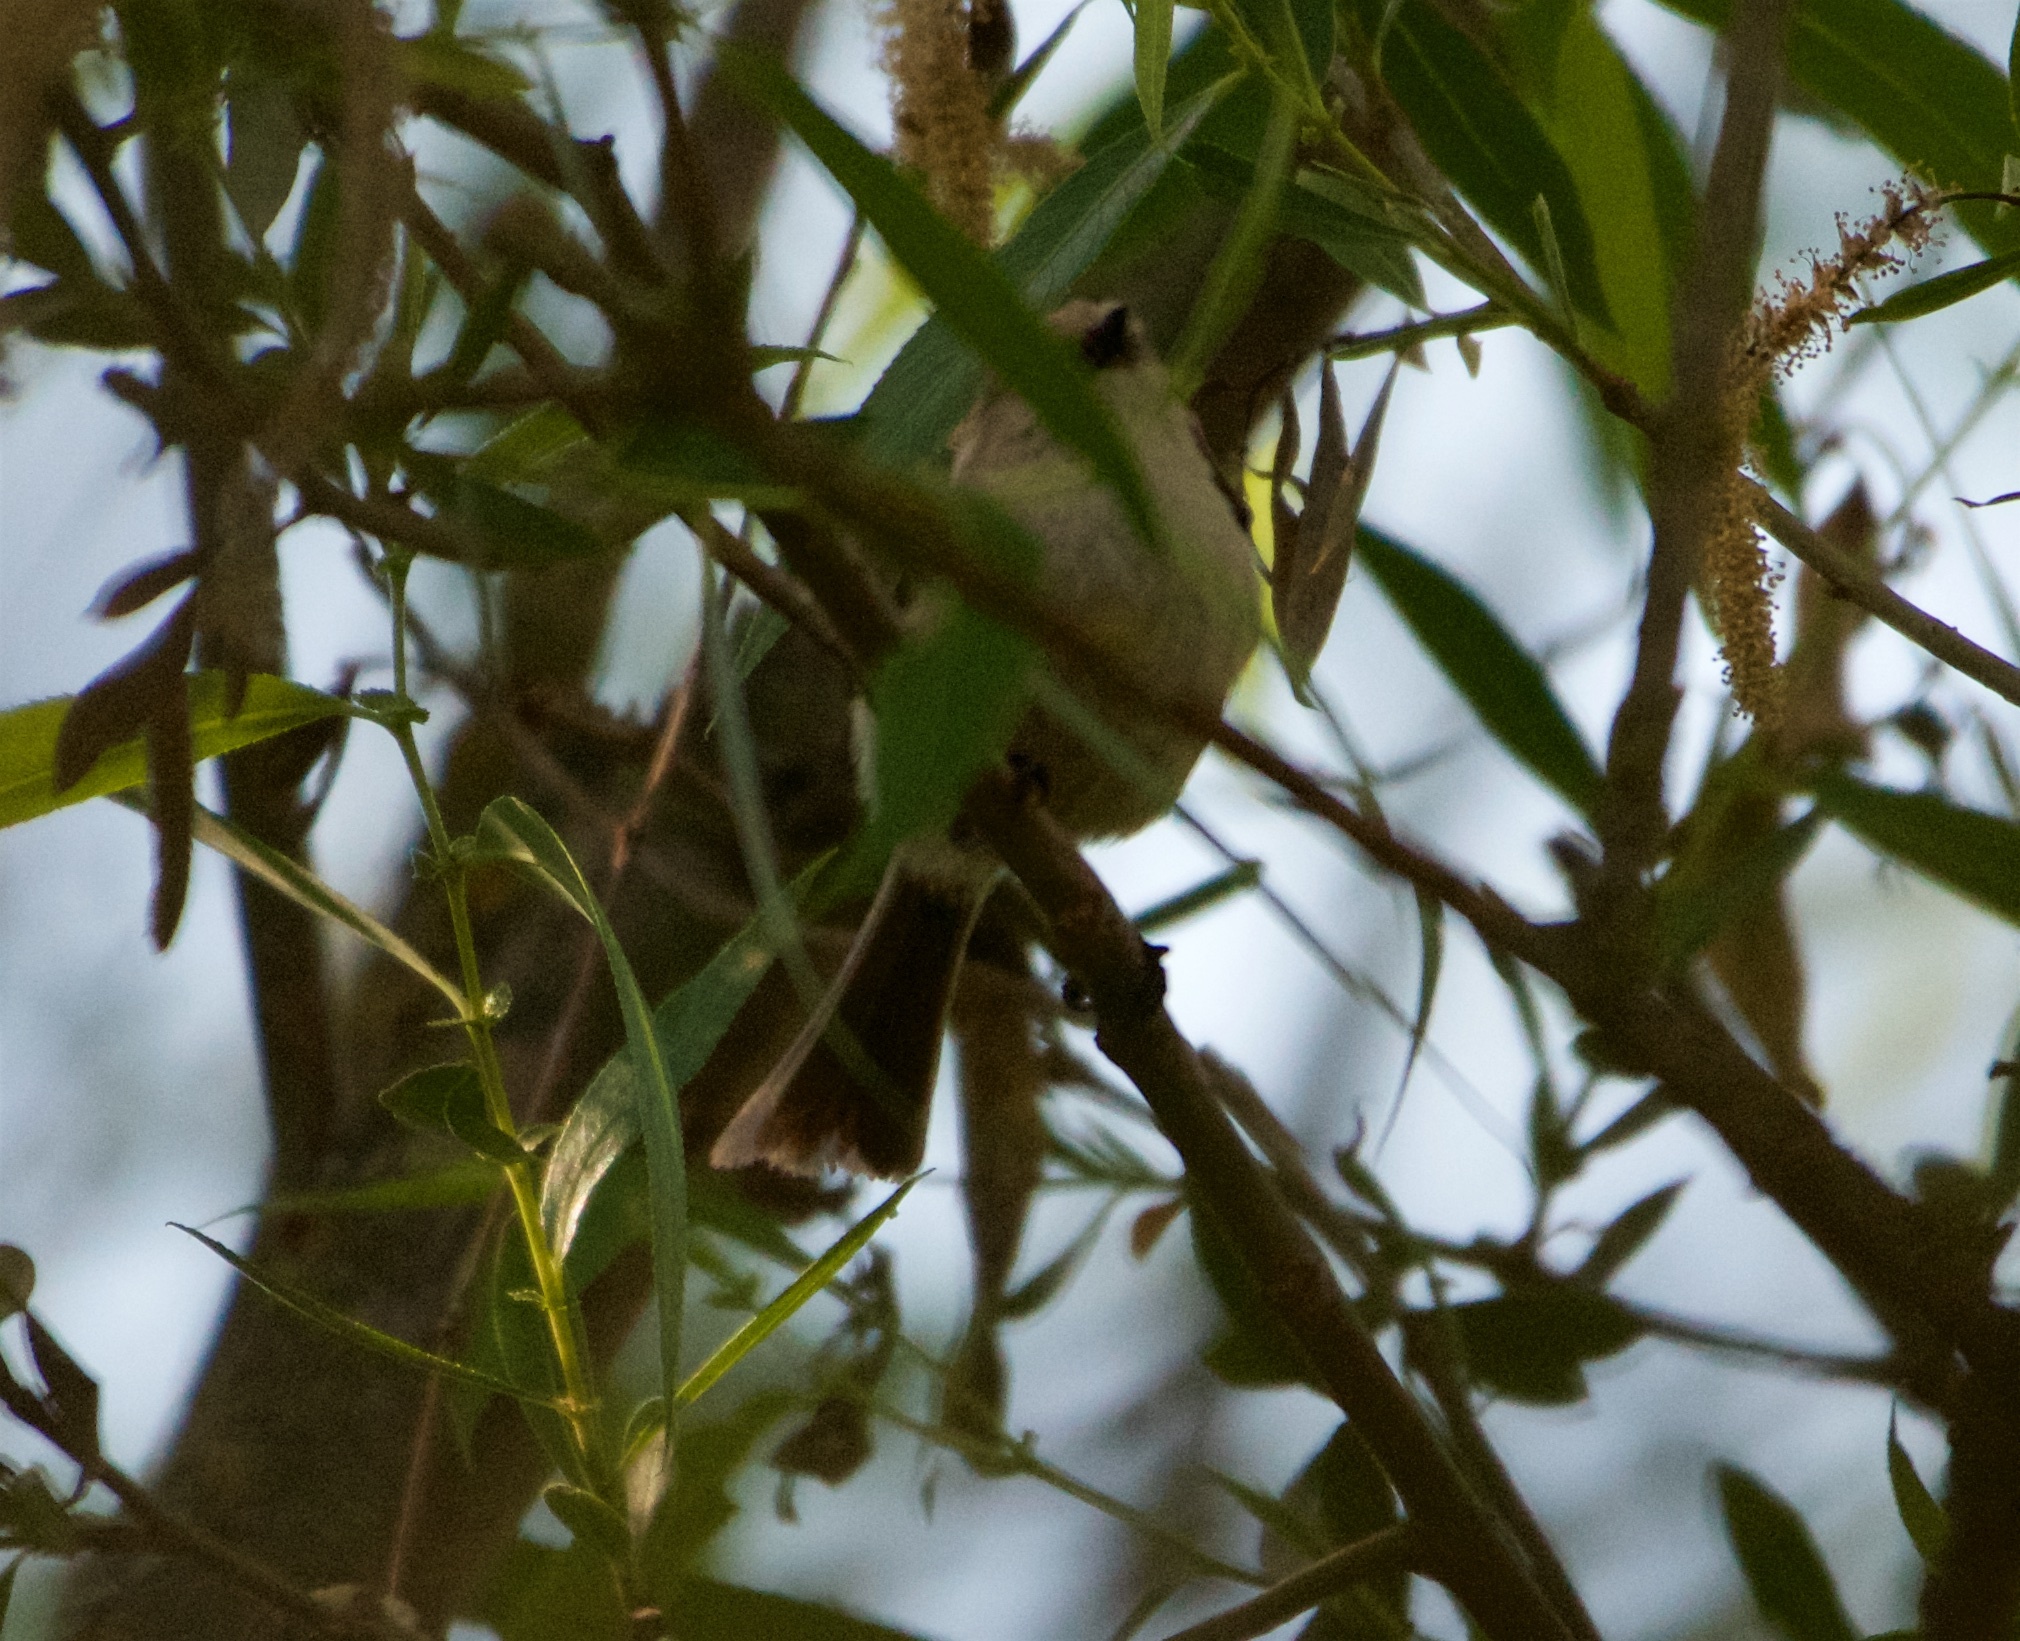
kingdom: Animalia
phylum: Chordata
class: Aves
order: Passeriformes
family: Aegithalidae
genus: Psaltriparus
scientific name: Psaltriparus minimus
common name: American bushtit
